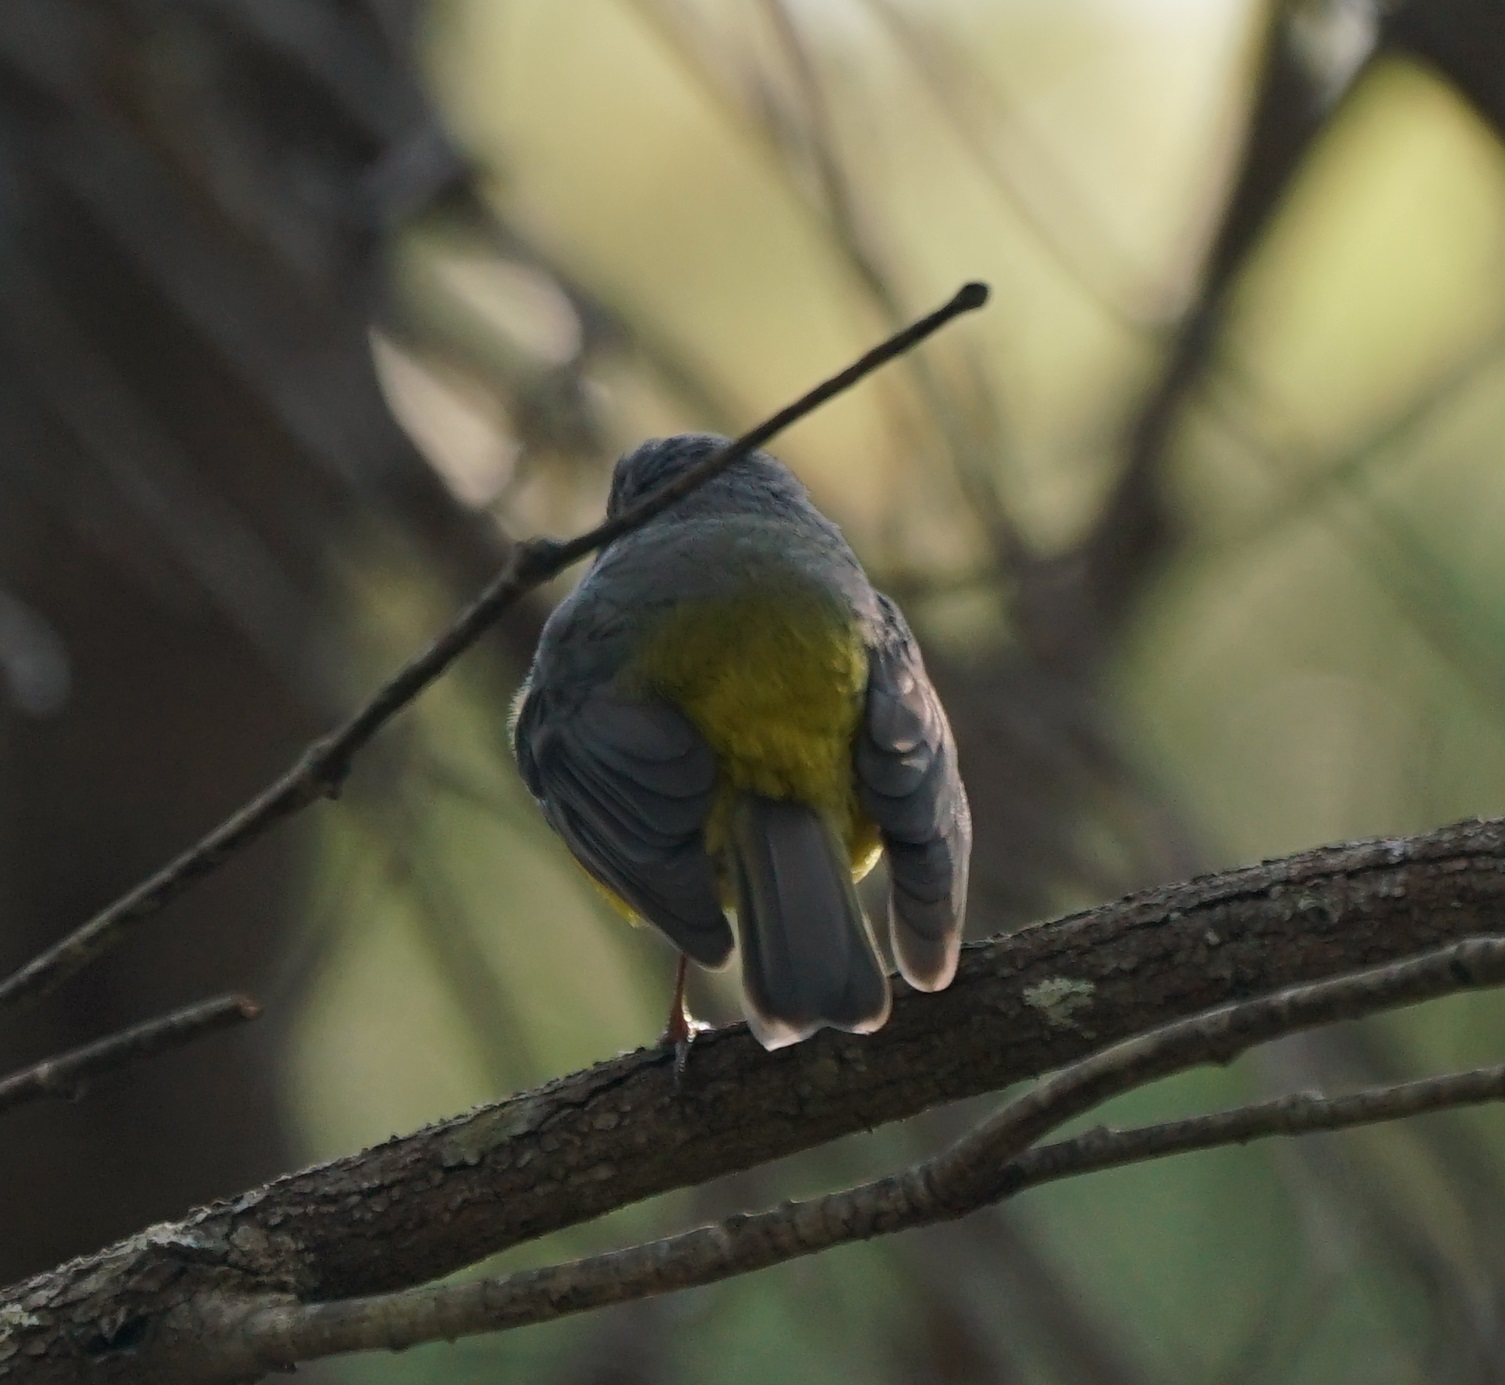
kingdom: Animalia
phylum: Chordata
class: Aves
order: Passeriformes
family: Petroicidae
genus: Eopsaltria
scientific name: Eopsaltria australis
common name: Eastern yellow robin
